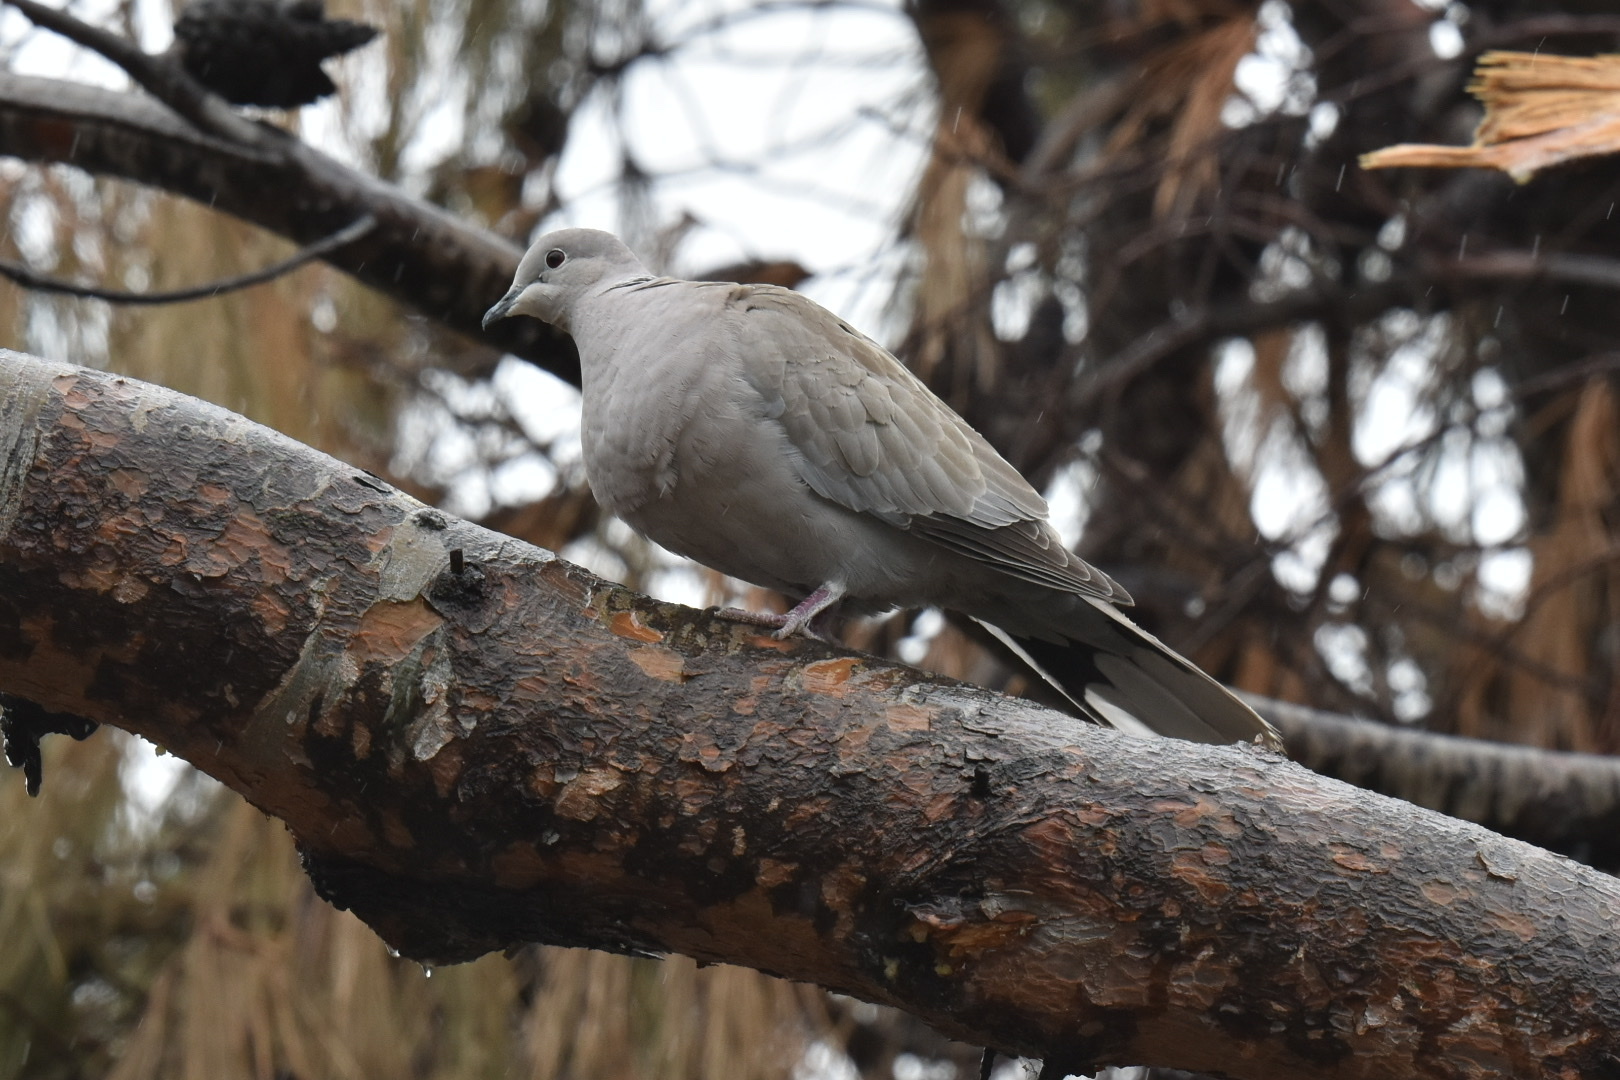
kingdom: Animalia
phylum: Chordata
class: Aves
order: Columbiformes
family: Columbidae
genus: Streptopelia
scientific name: Streptopelia decaocto
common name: Eurasian collared dove
